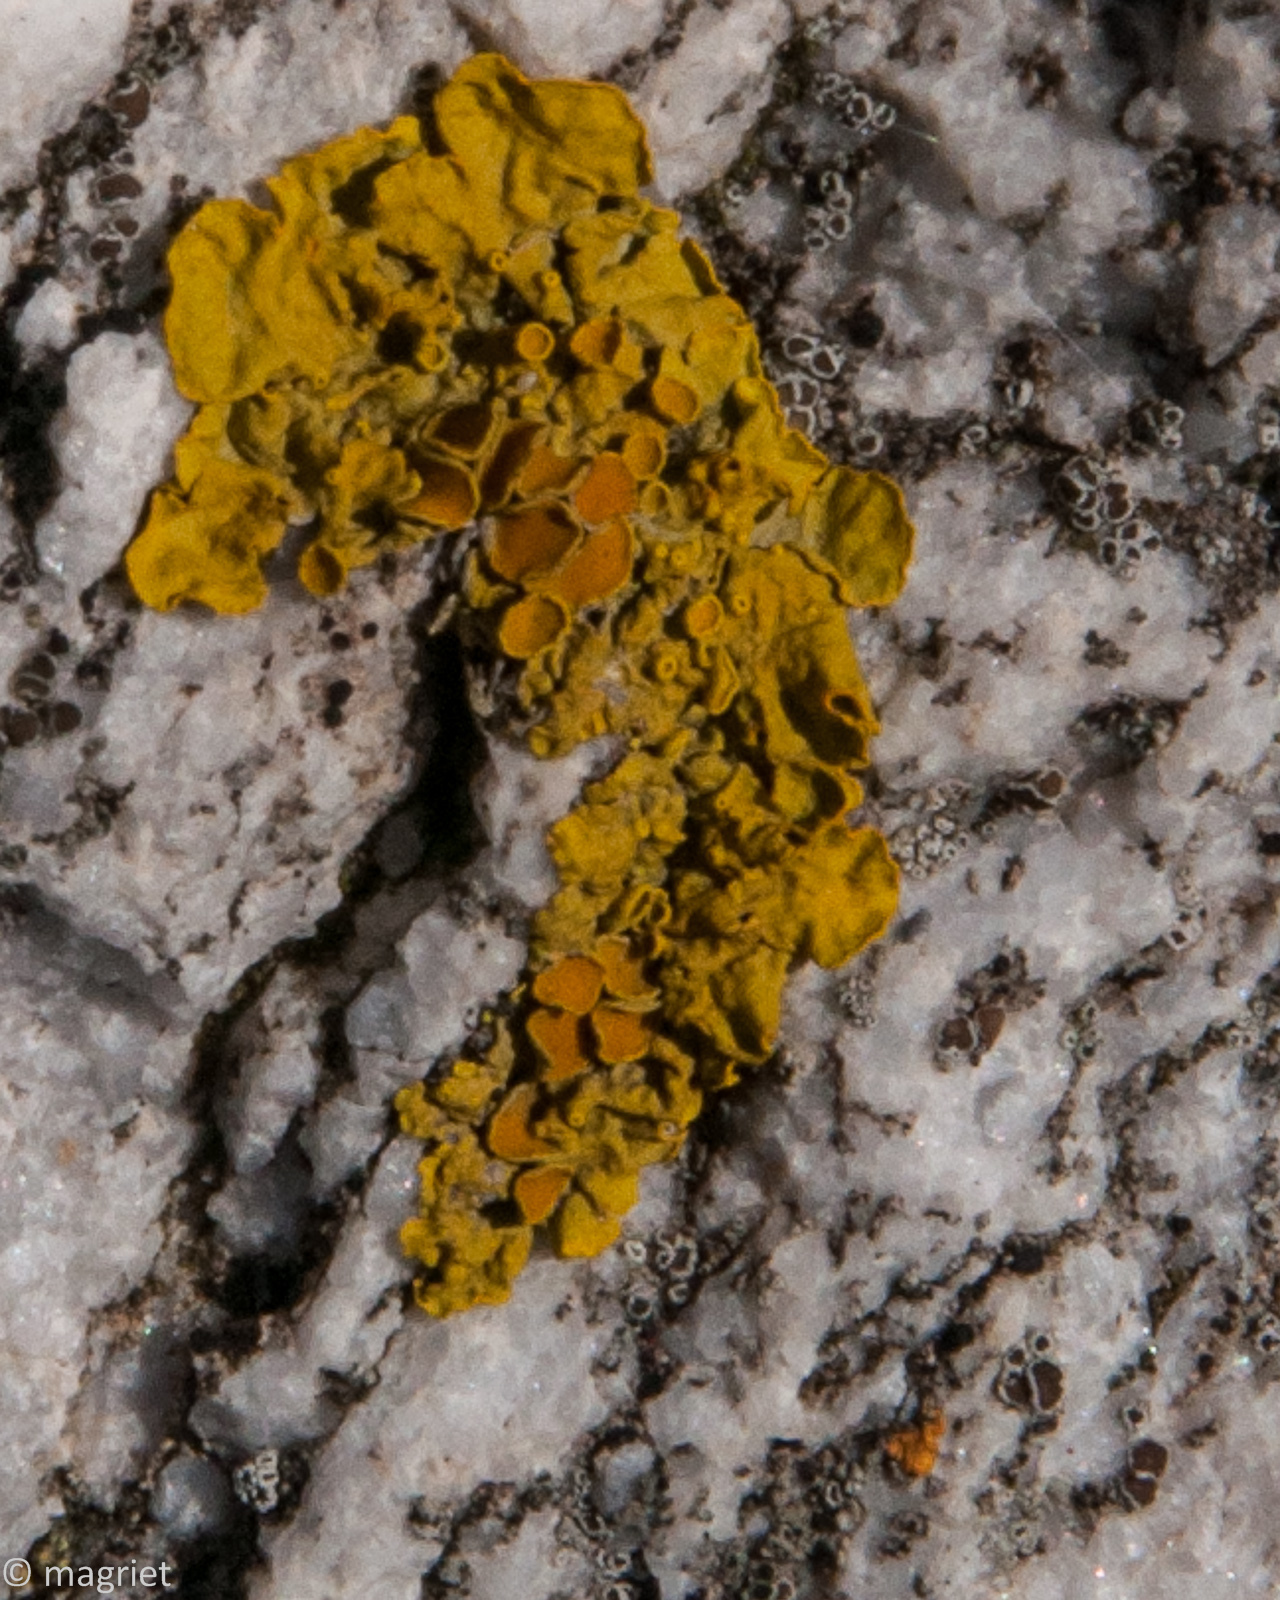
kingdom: Fungi
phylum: Ascomycota
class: Lecanoromycetes
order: Teloschistales
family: Teloschistaceae
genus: Xanthoria
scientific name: Xanthoria parietina
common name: Common orange lichen
